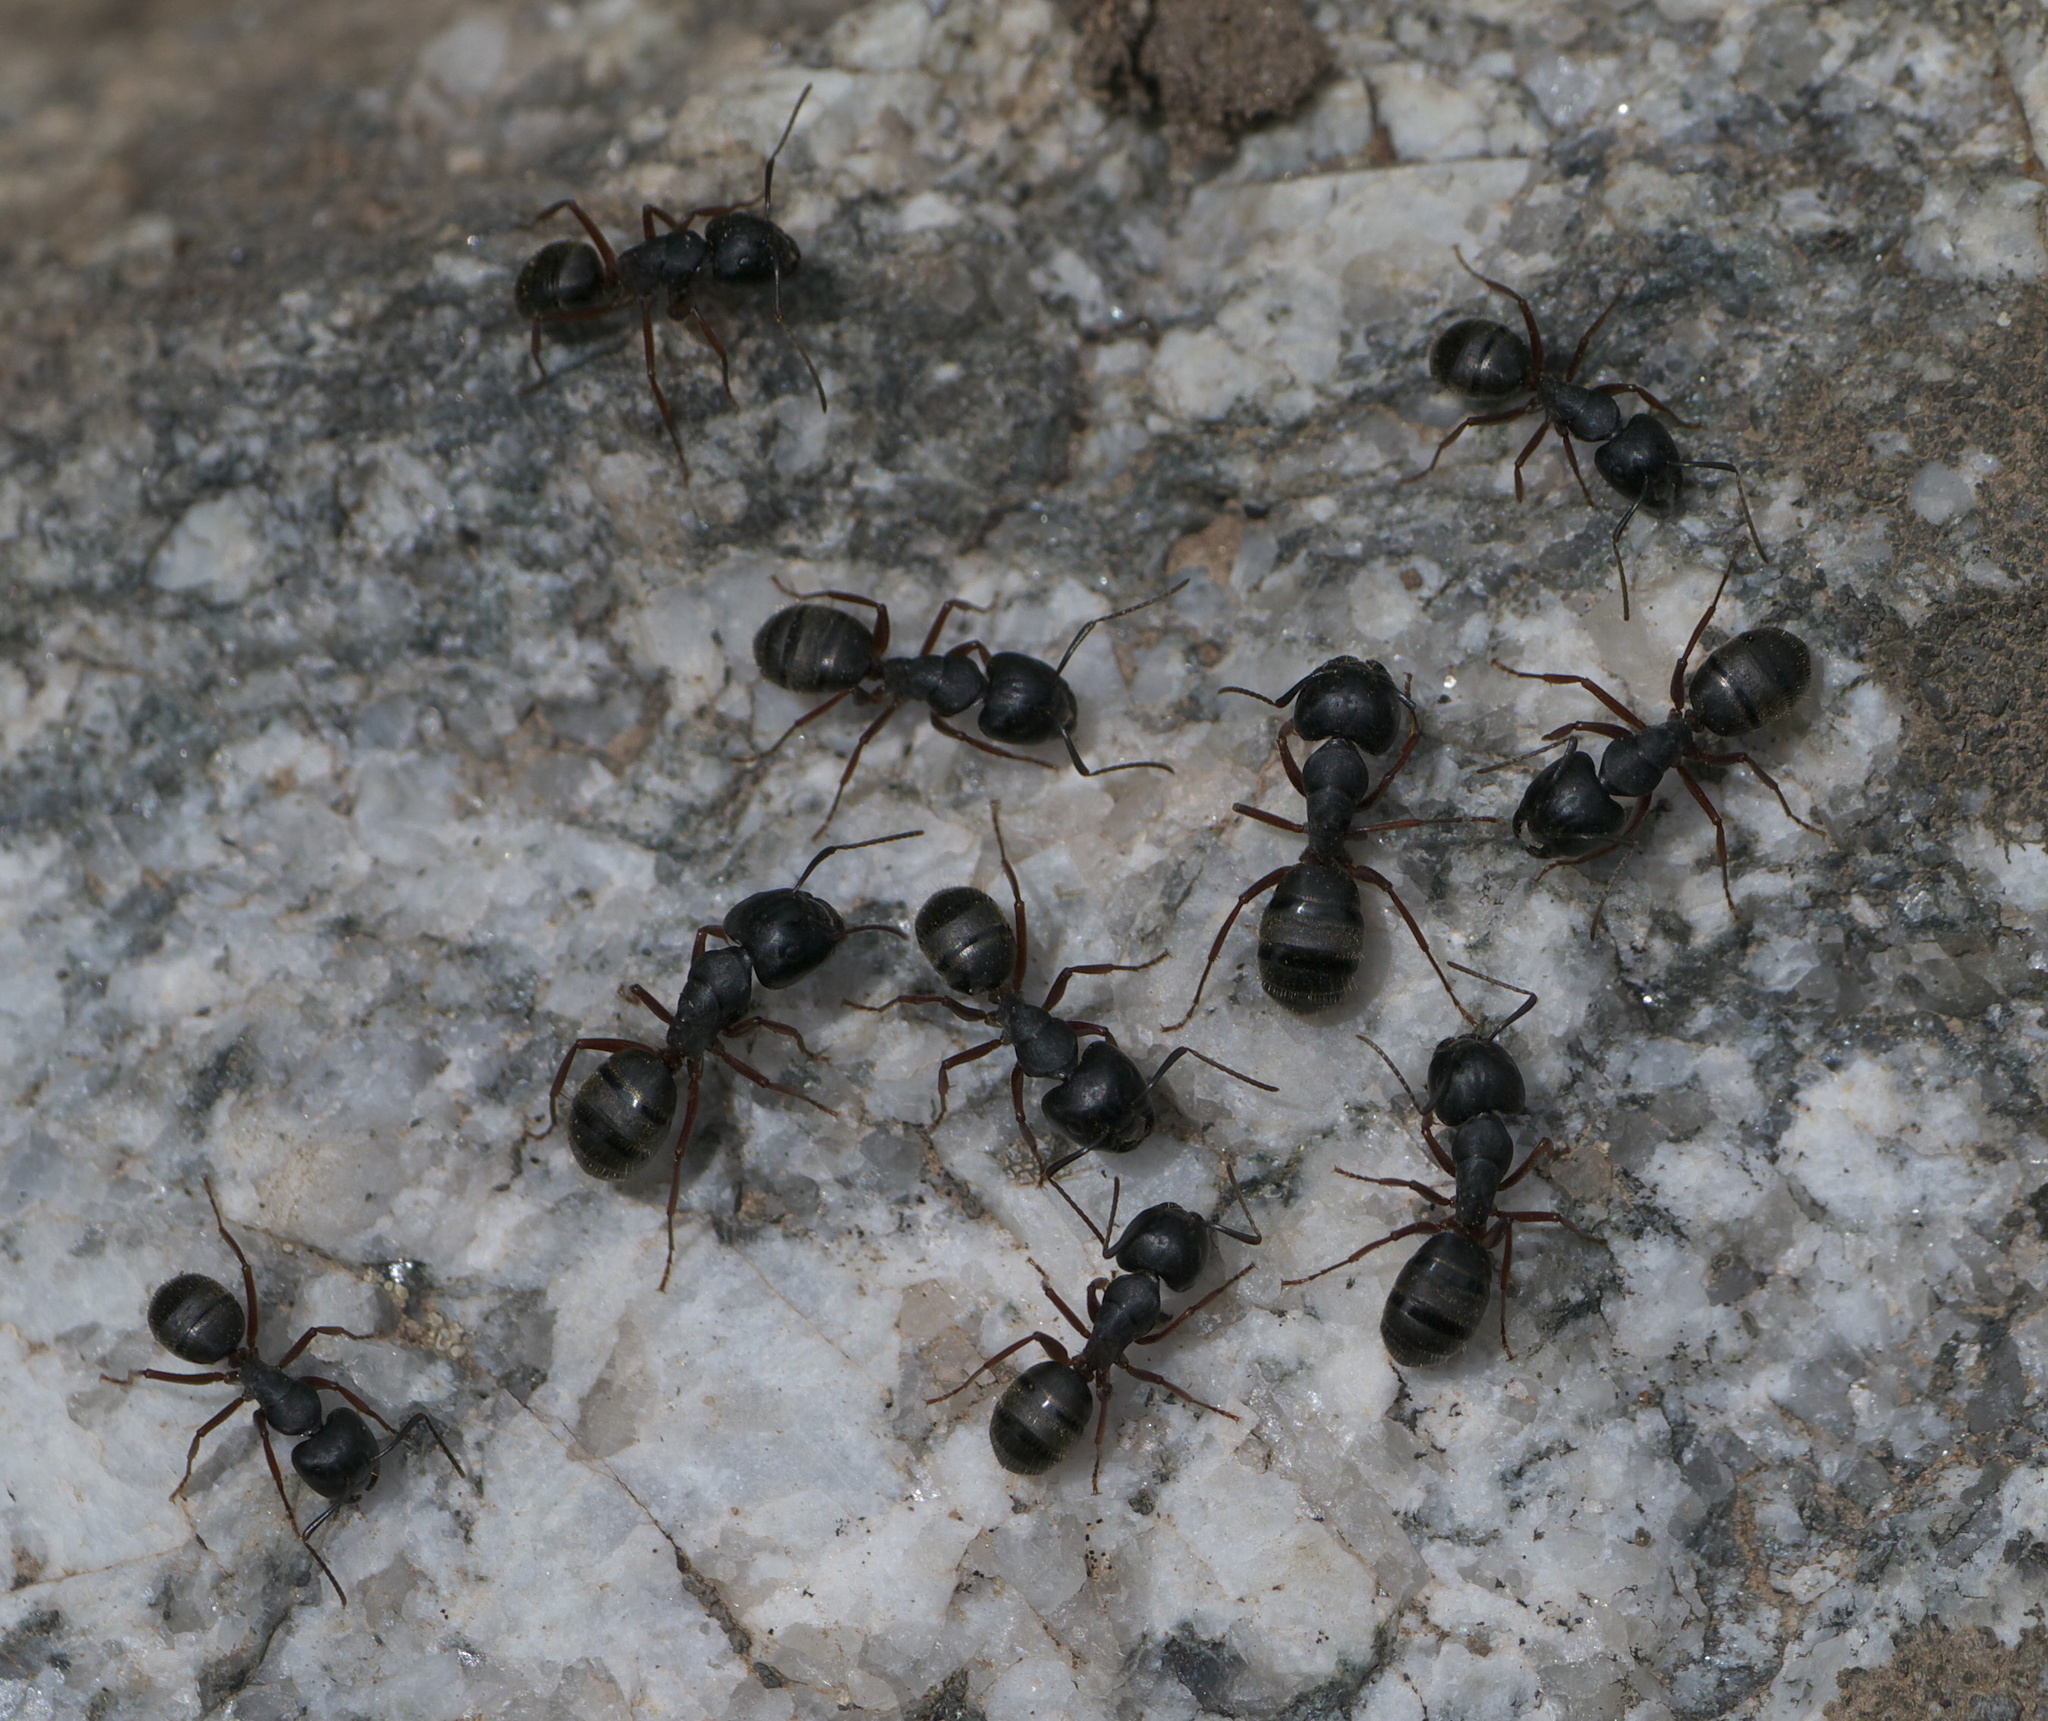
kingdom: Animalia
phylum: Arthropoda
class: Insecta
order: Hymenoptera
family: Formicidae
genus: Camponotus
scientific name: Camponotus modoc
